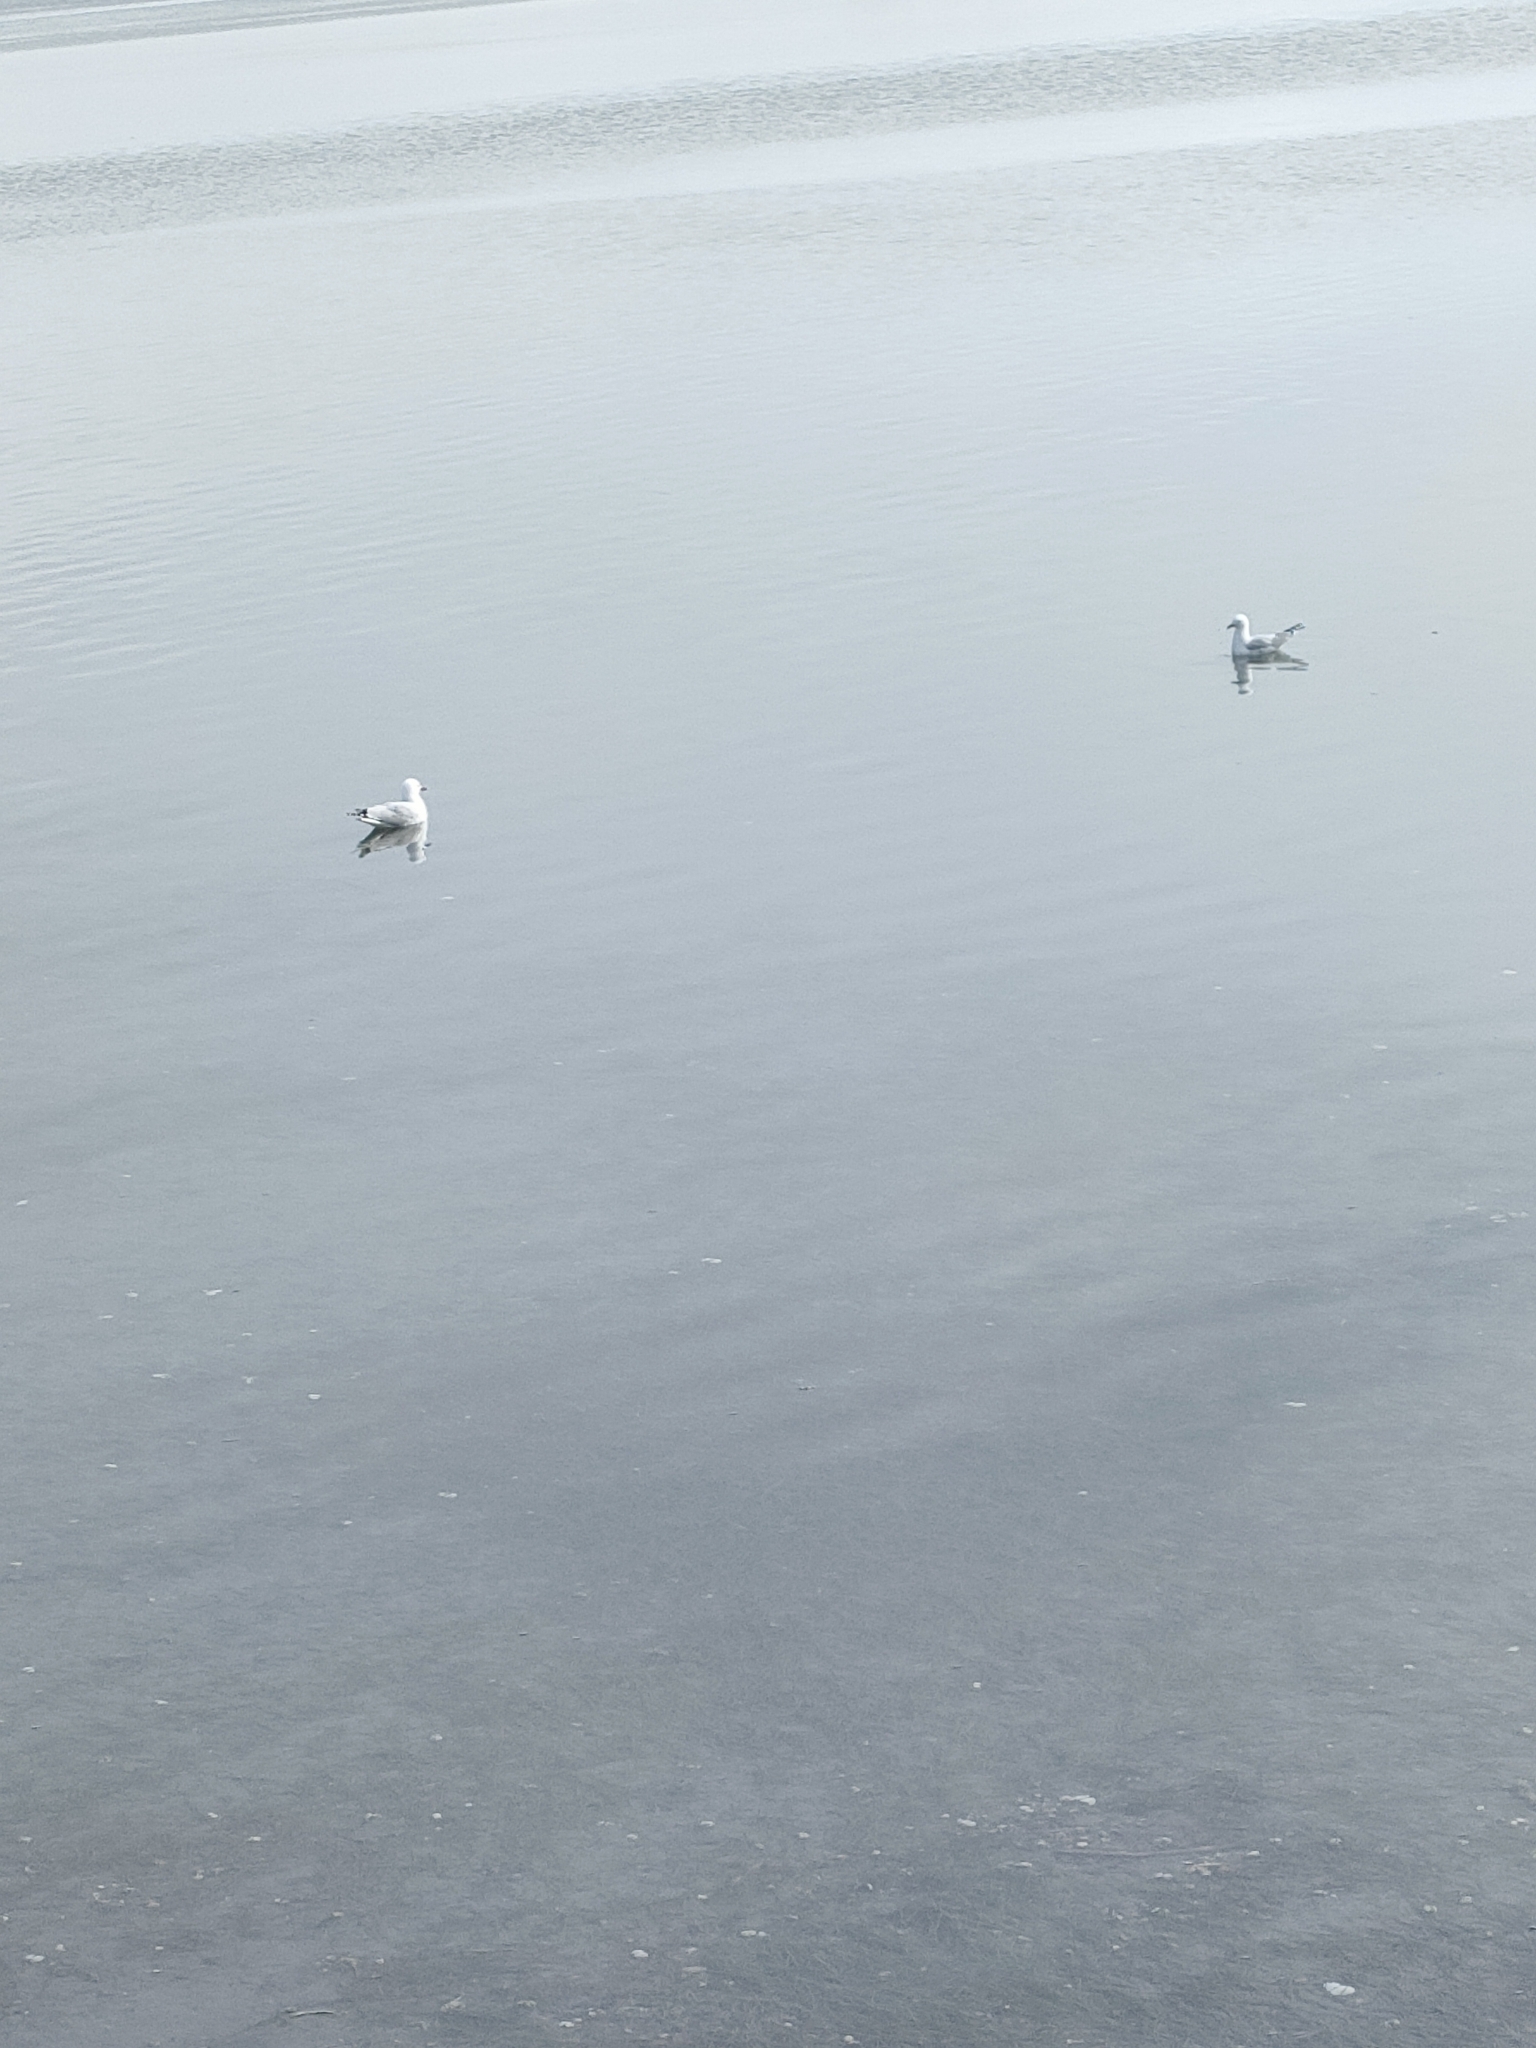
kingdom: Animalia
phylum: Chordata
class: Aves
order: Charadriiformes
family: Laridae
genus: Chroicocephalus
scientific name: Chroicocephalus novaehollandiae
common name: Silver gull
